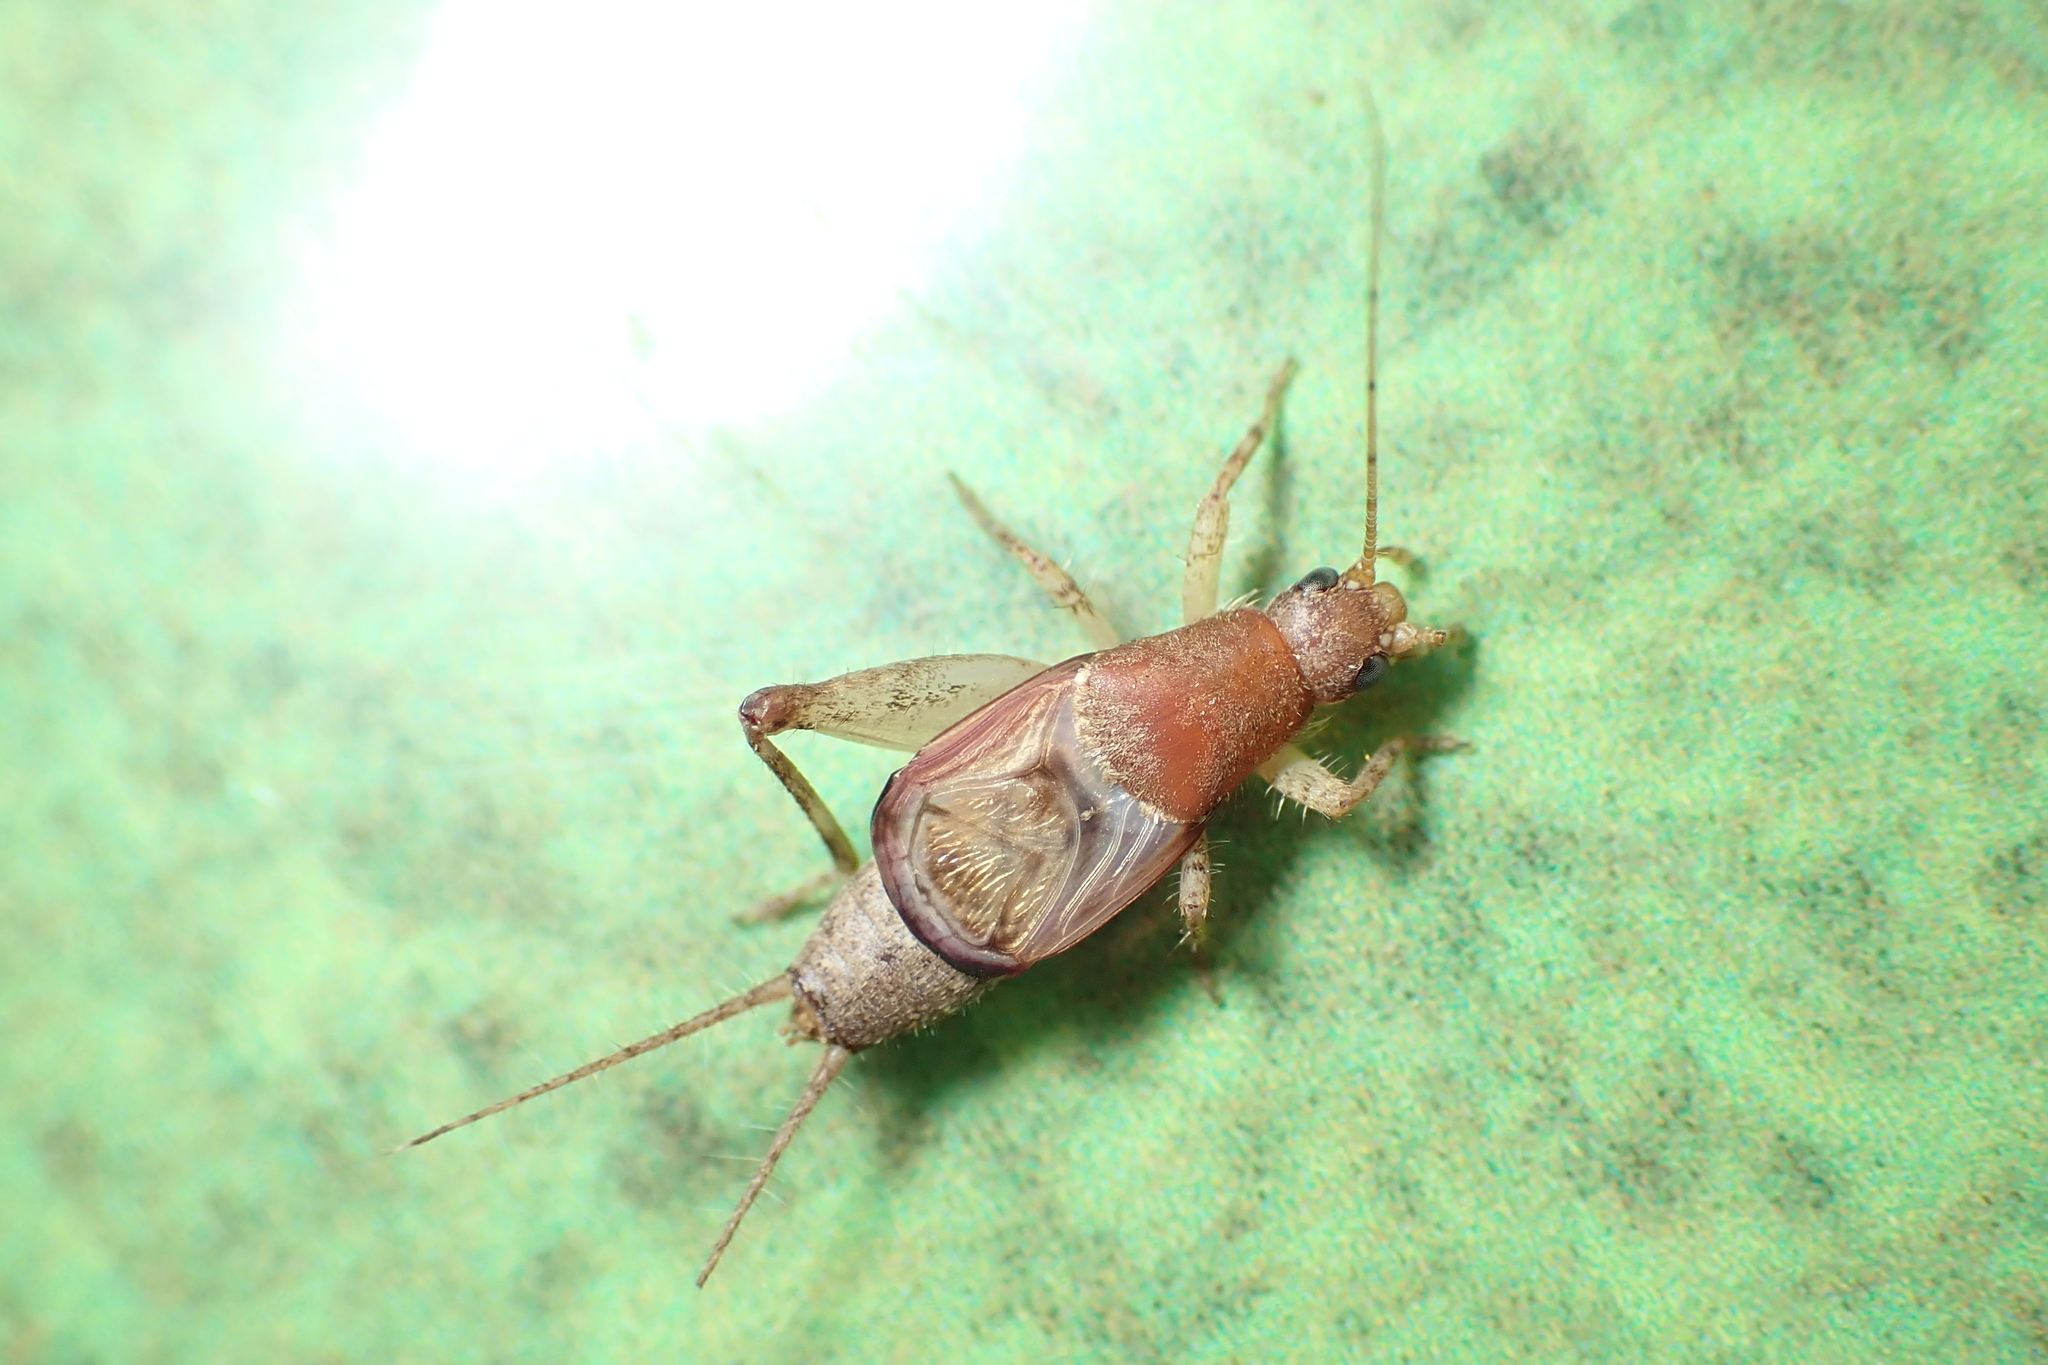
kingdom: Animalia
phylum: Arthropoda
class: Insecta
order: Orthoptera
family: Mogoplistidae
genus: Ornebius
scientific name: Ornebius aperta
